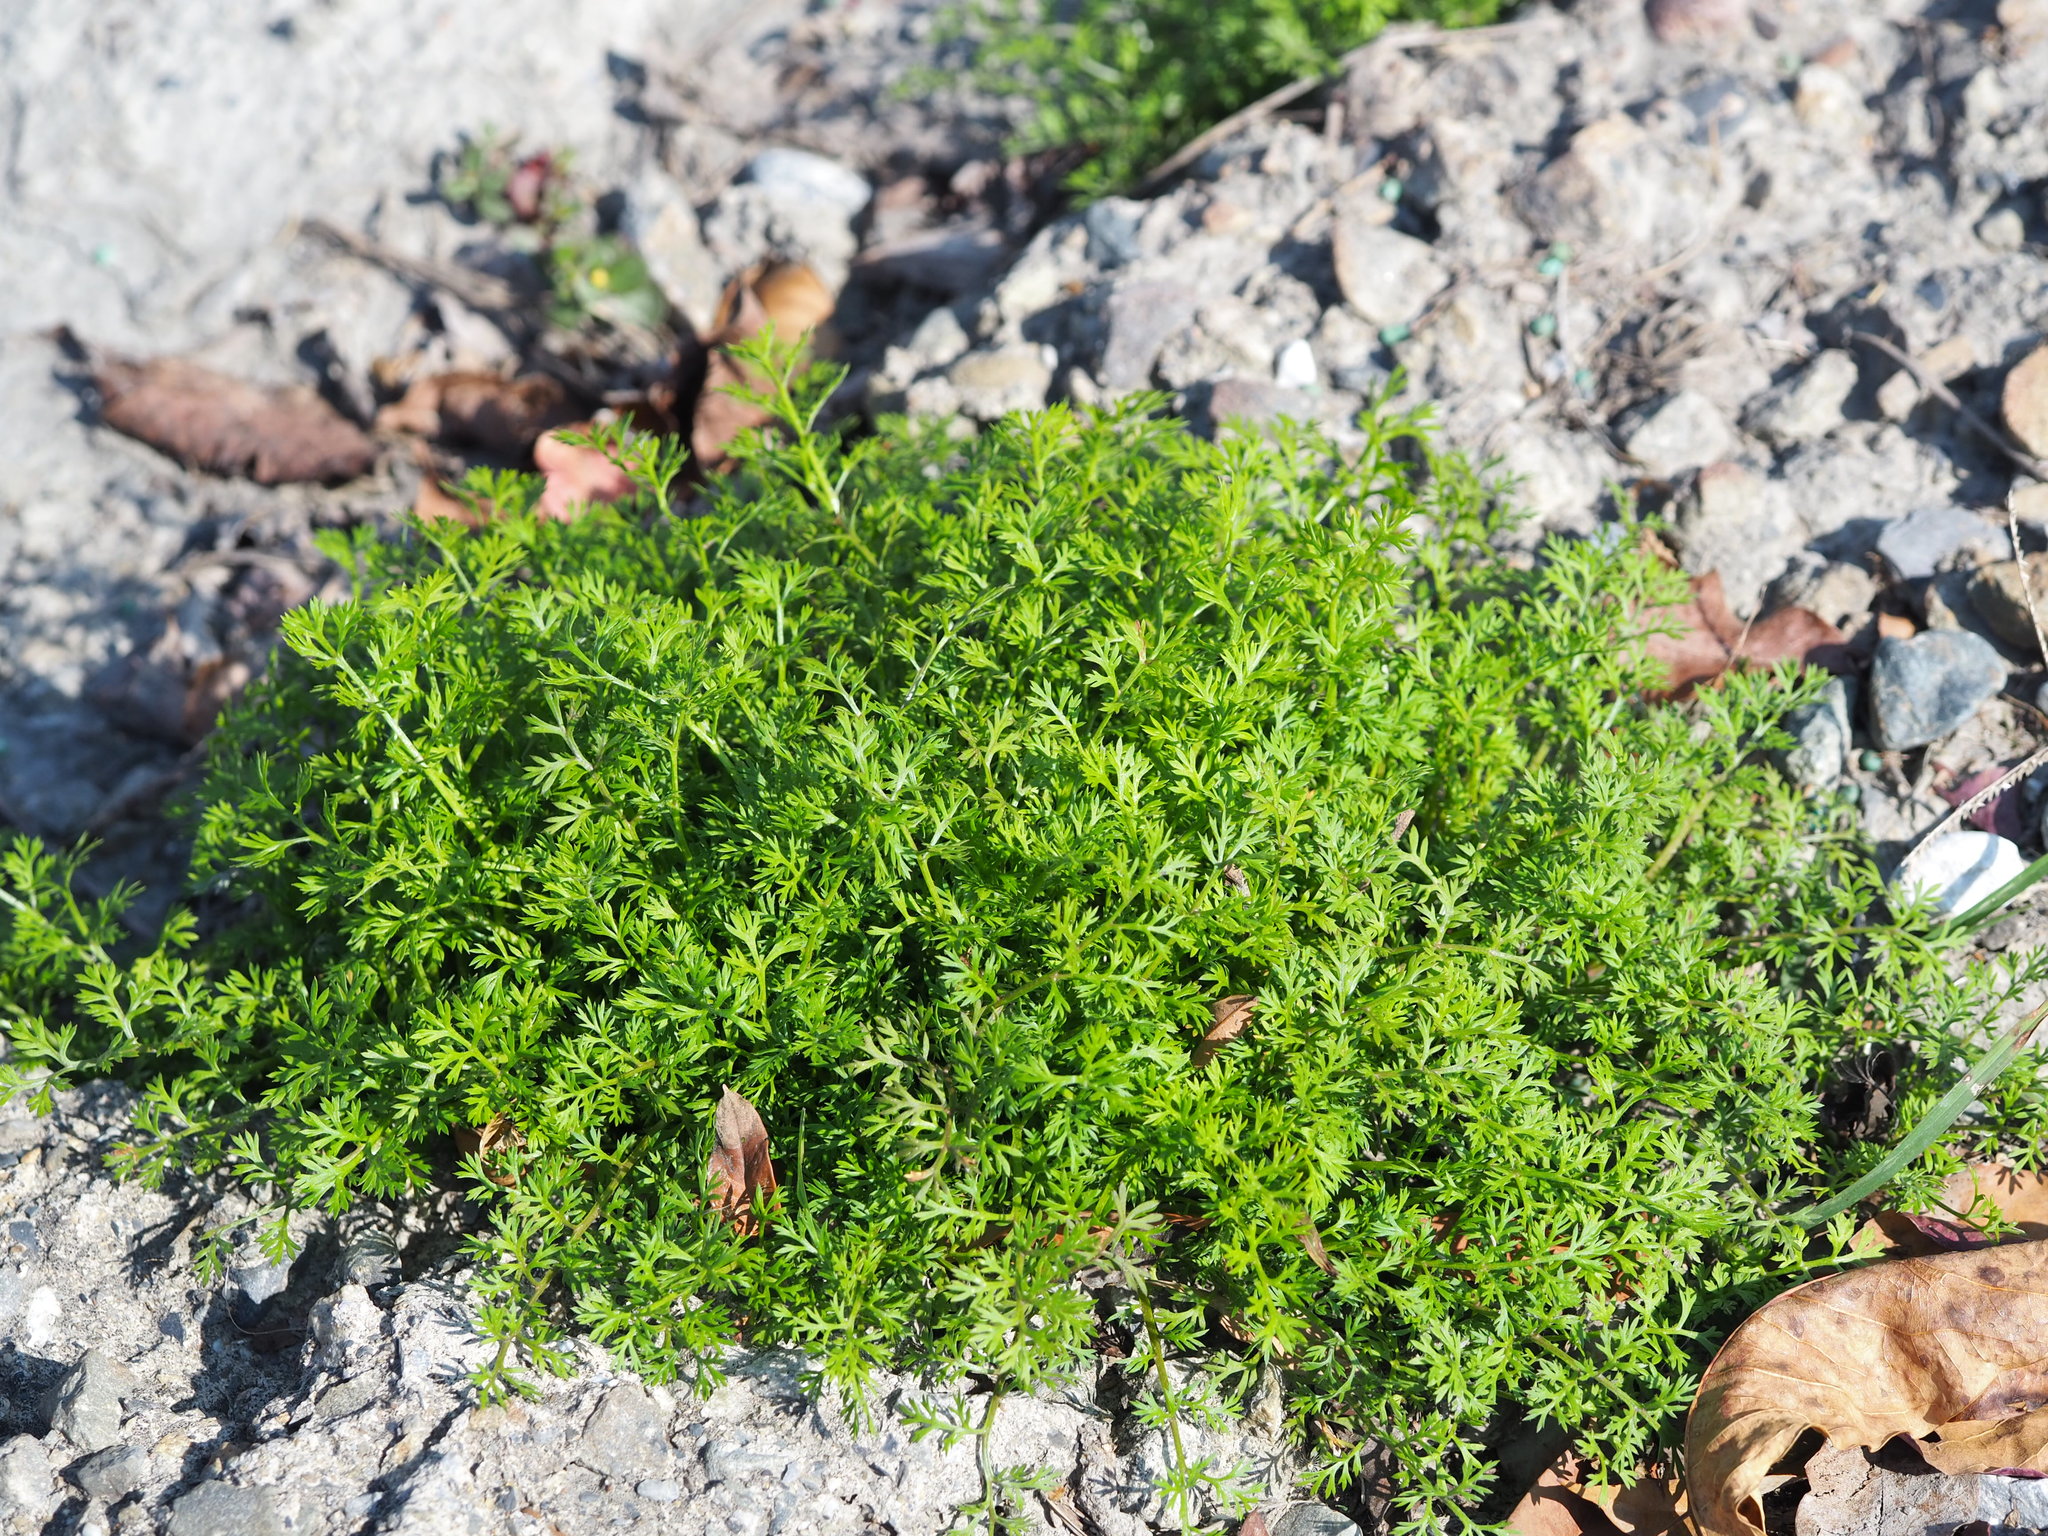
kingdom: Plantae
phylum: Tracheophyta
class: Magnoliopsida
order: Asterales
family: Asteraceae
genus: Soliva
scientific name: Soliva anthemifolia
